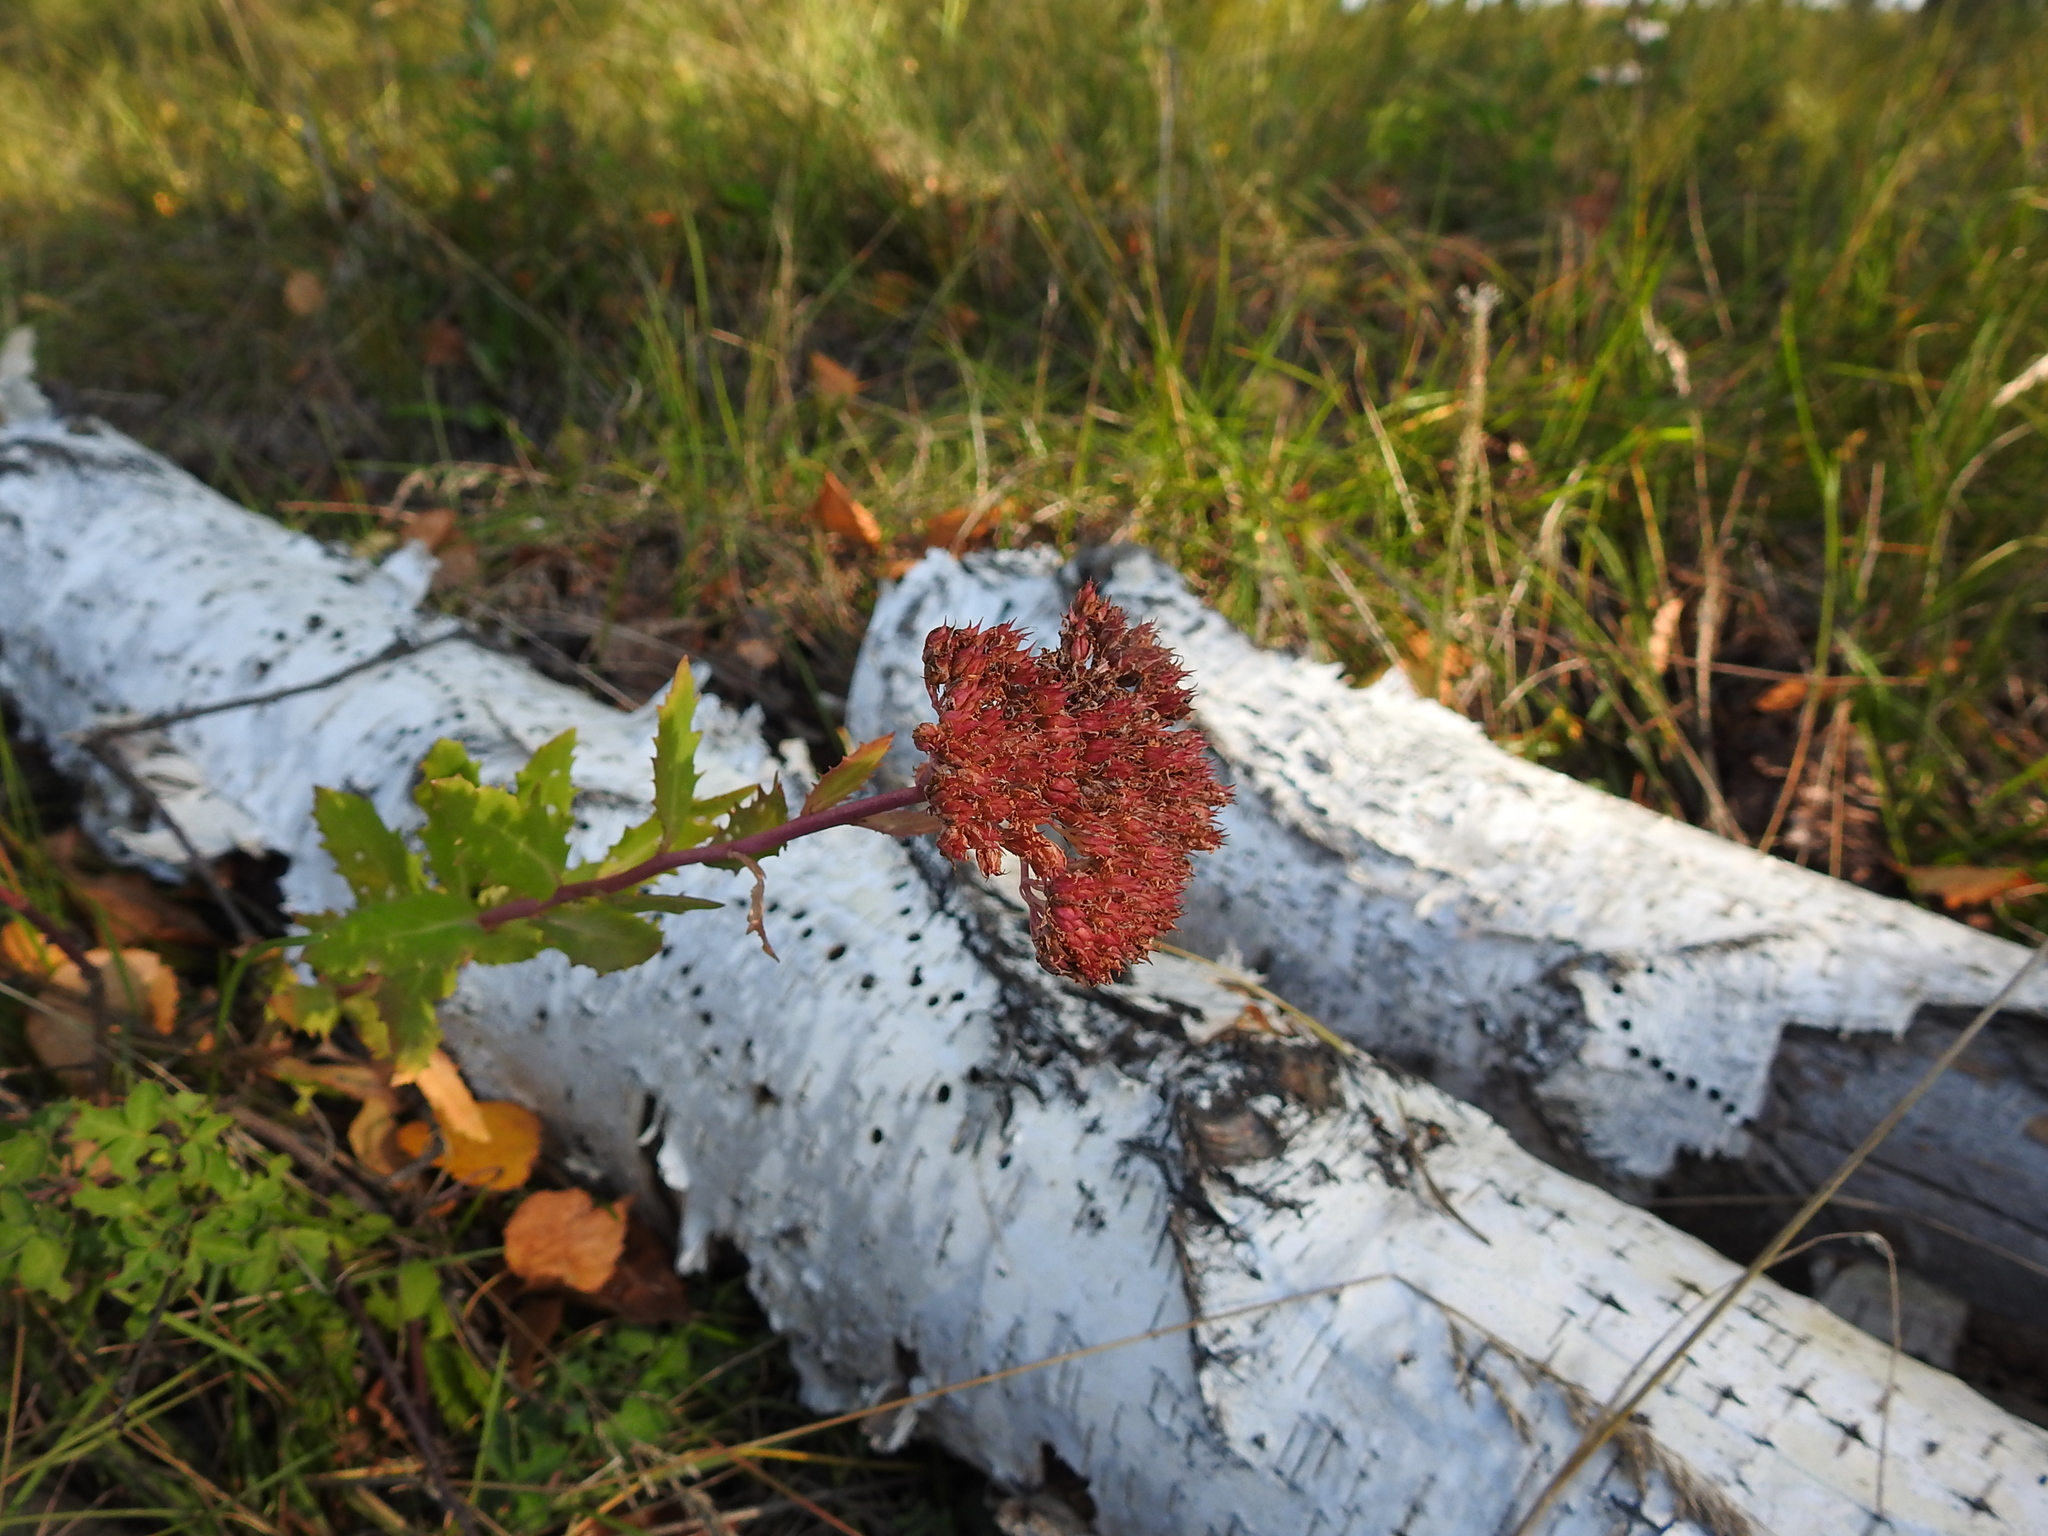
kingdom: Plantae
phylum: Tracheophyta
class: Magnoliopsida
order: Saxifragales
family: Crassulaceae
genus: Hylotelephium
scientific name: Hylotelephium telephium
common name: Live-forever
